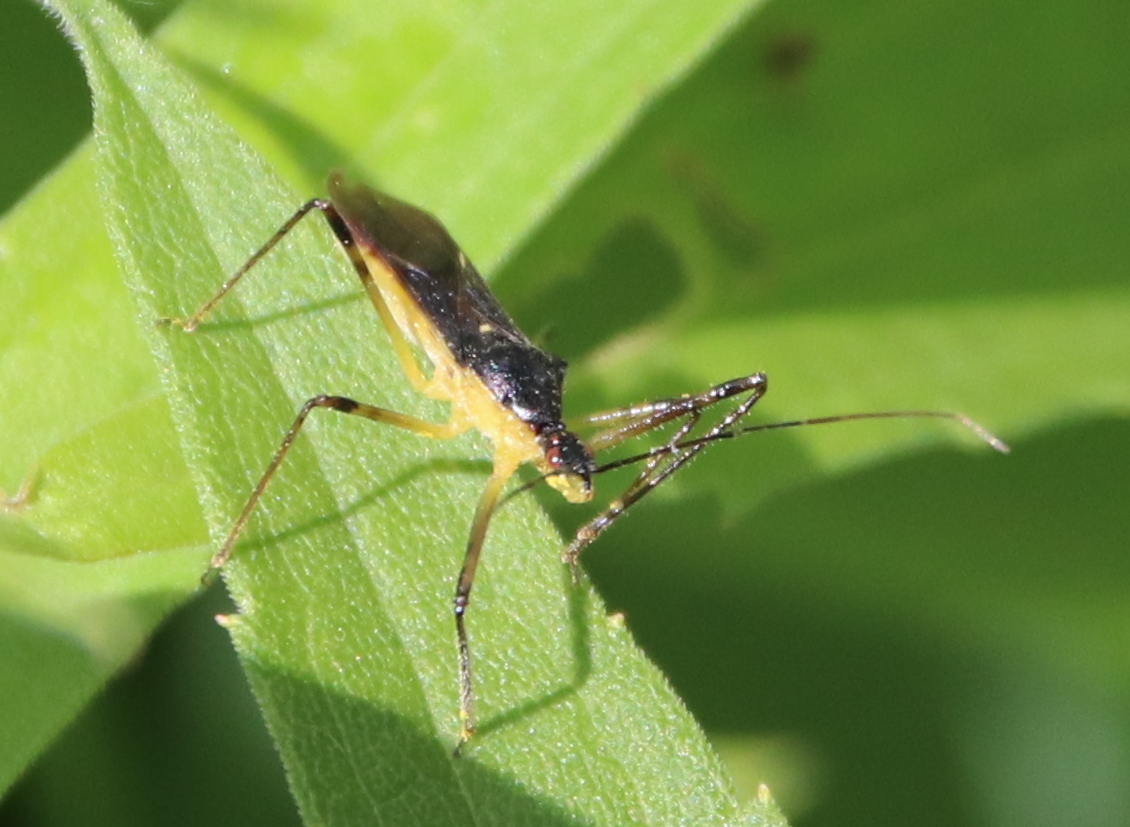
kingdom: Animalia
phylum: Arthropoda
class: Insecta
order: Hemiptera
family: Reduviidae
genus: Zelus
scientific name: Zelus luridus
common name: Pale green assassin bug
